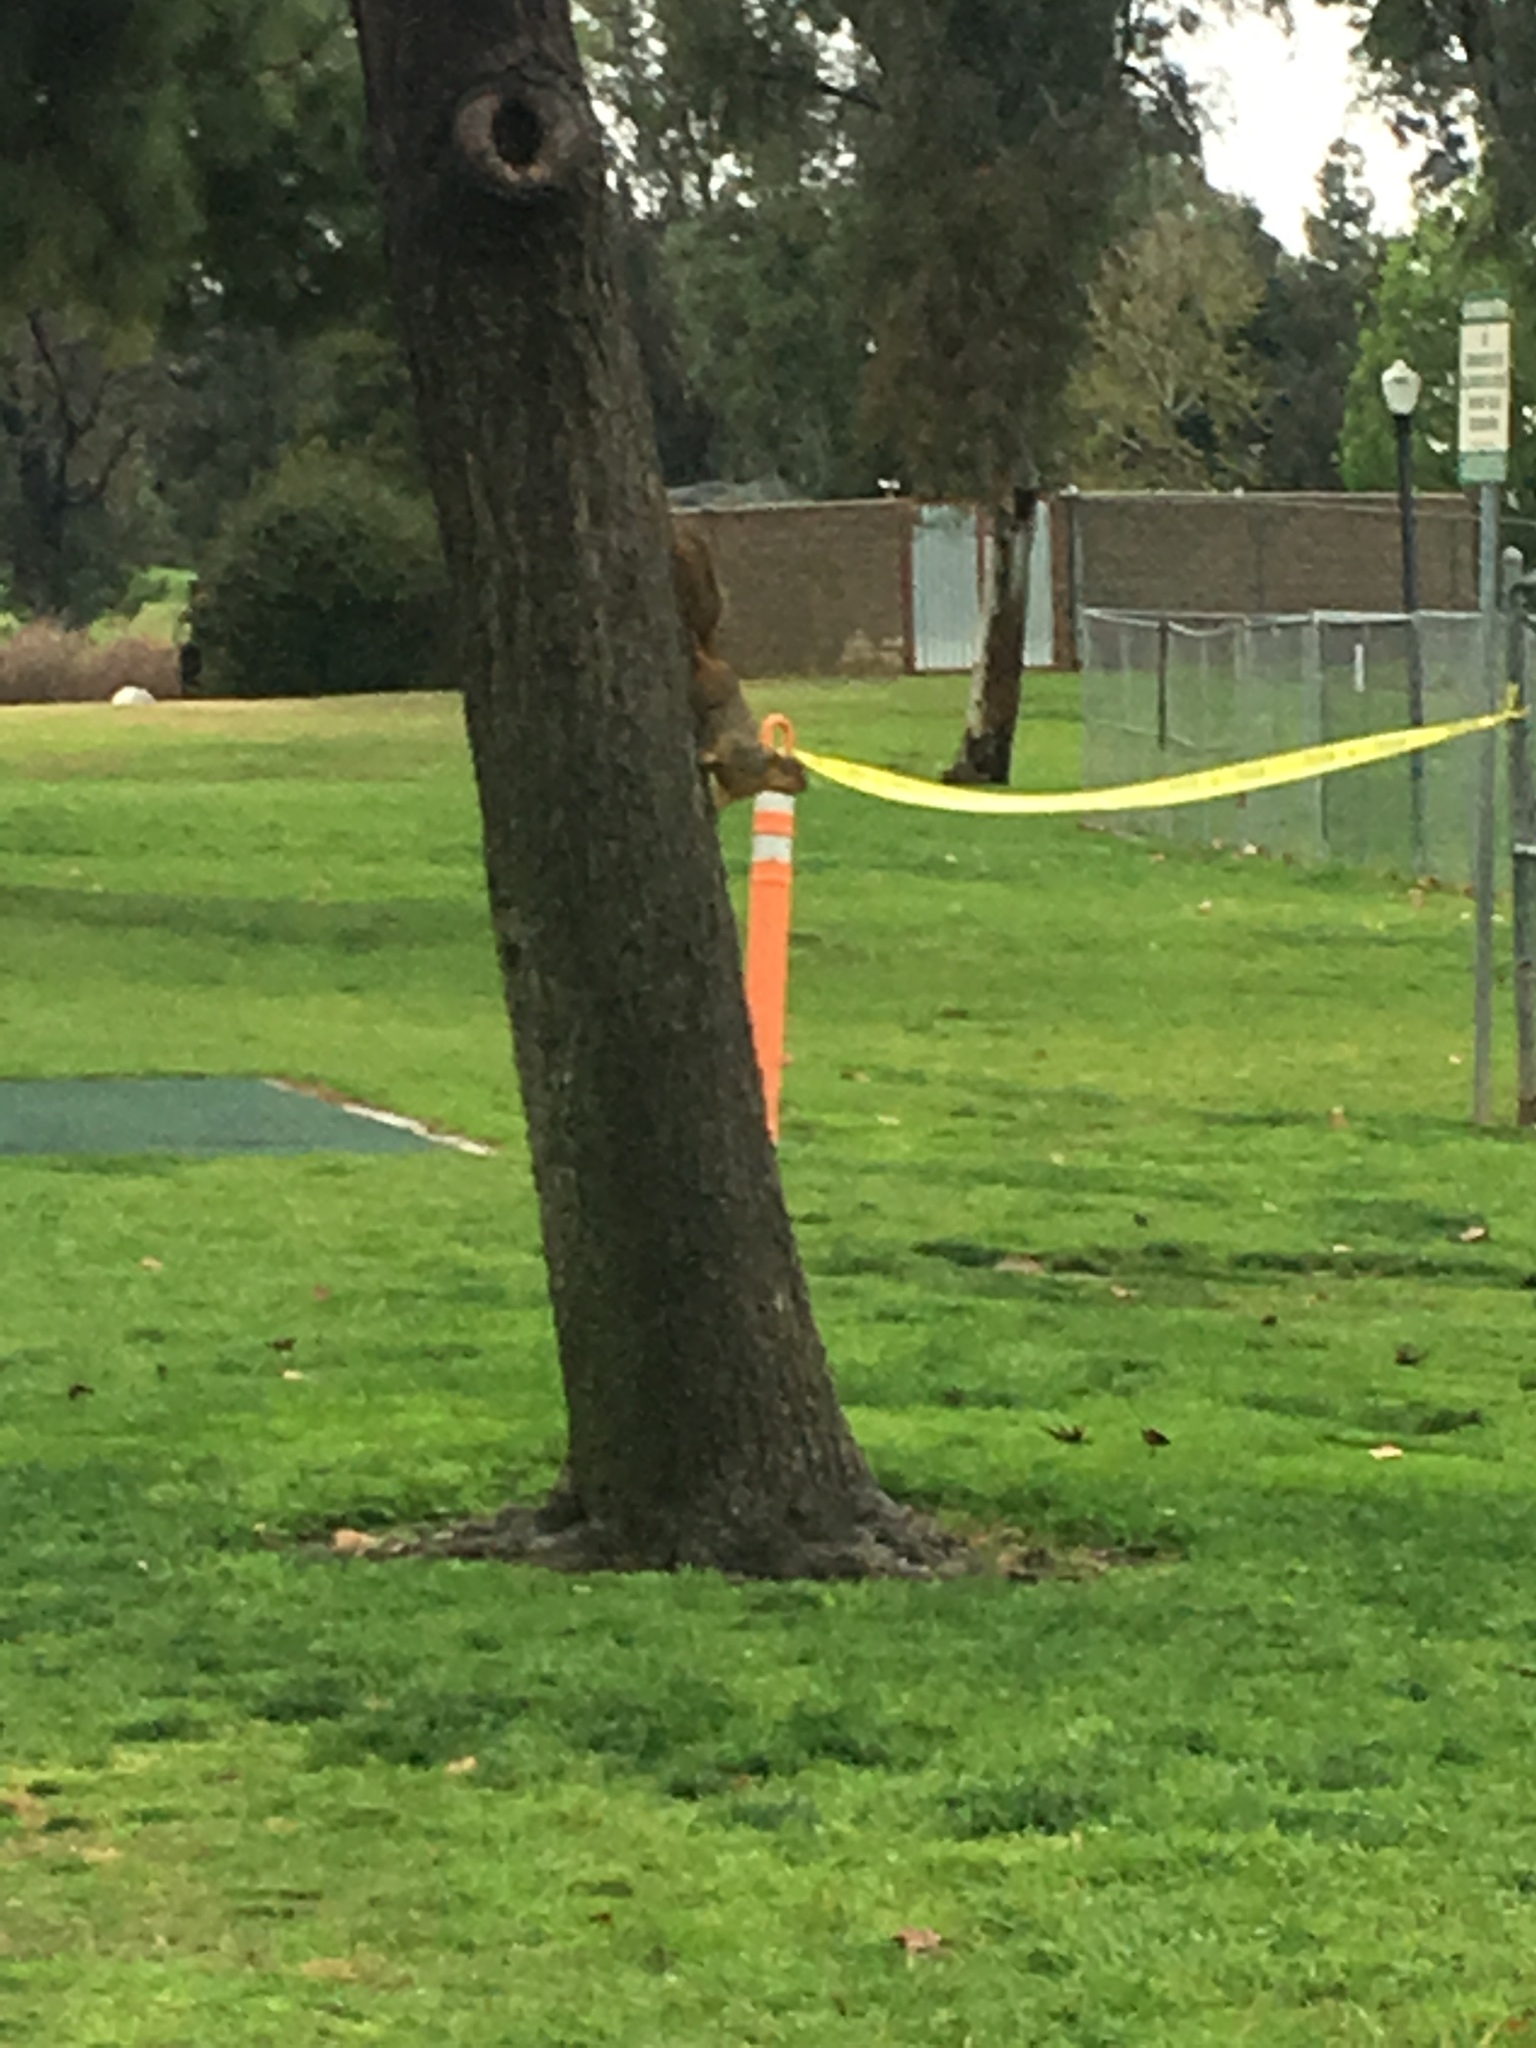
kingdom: Animalia
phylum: Chordata
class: Mammalia
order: Rodentia
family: Sciuridae
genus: Sciurus
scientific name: Sciurus niger
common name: Fox squirrel
